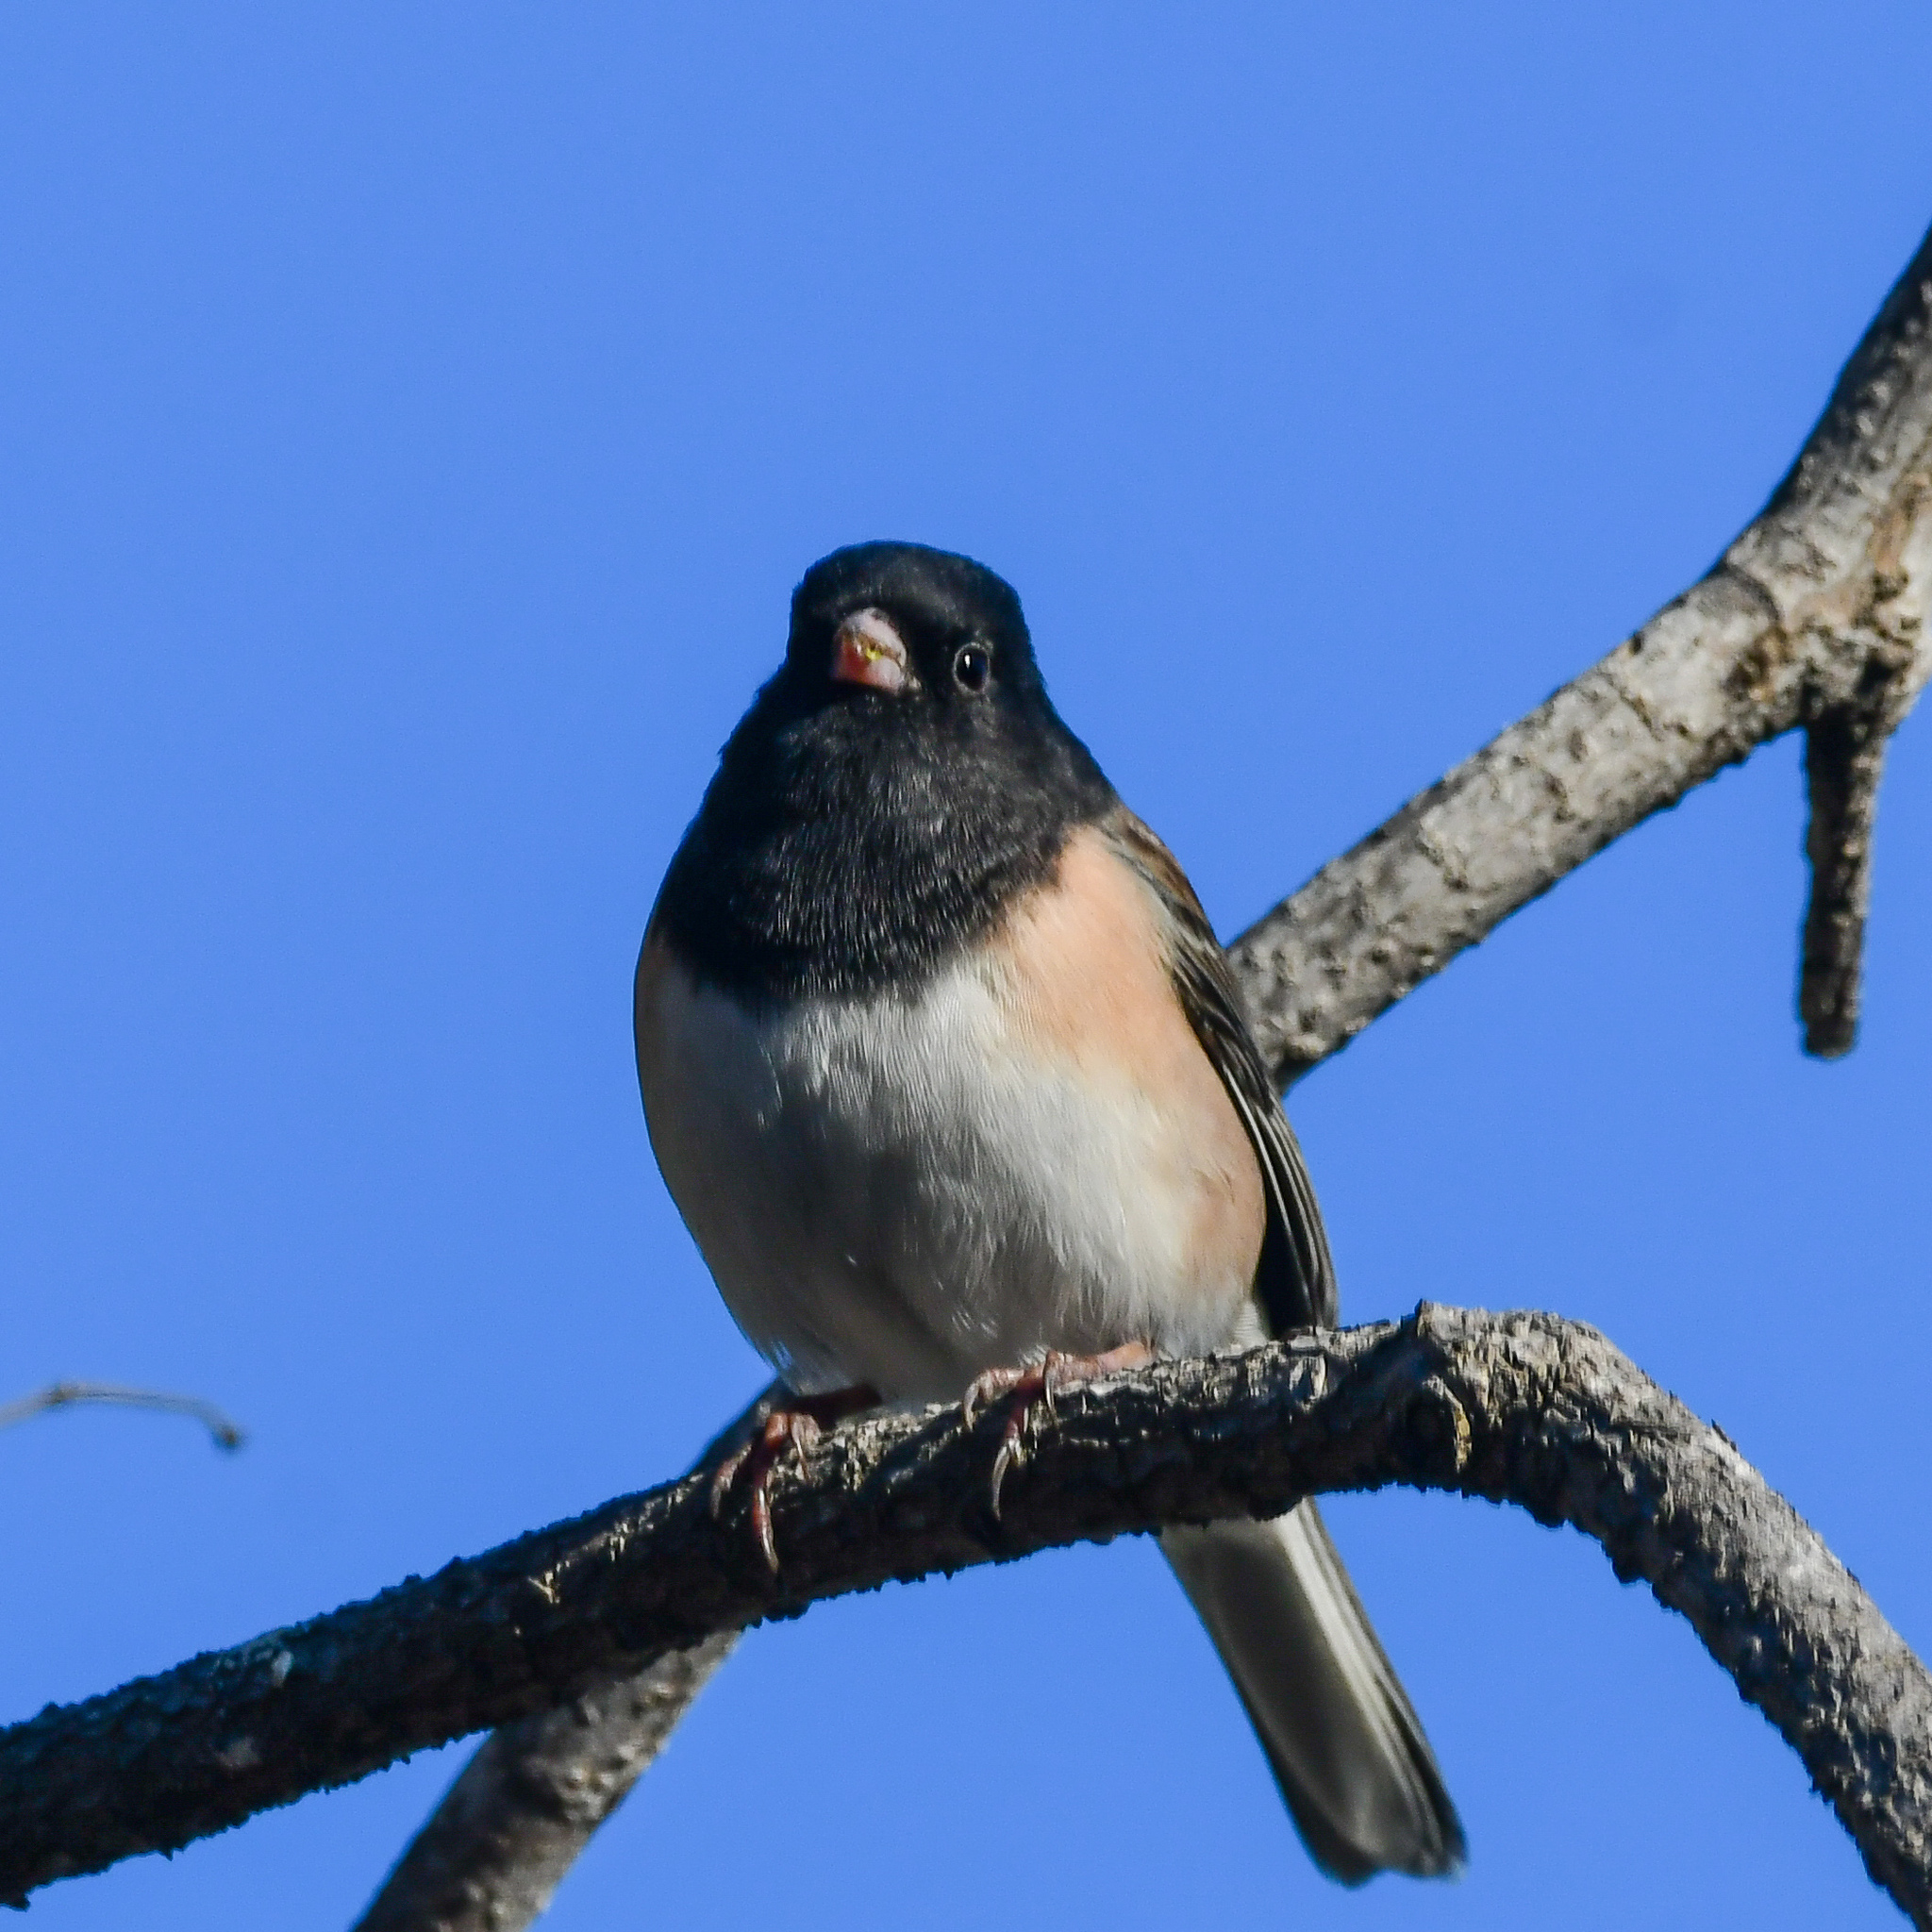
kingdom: Animalia
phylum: Chordata
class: Aves
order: Passeriformes
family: Passerellidae
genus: Junco
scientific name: Junco hyemalis
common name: Dark-eyed junco
